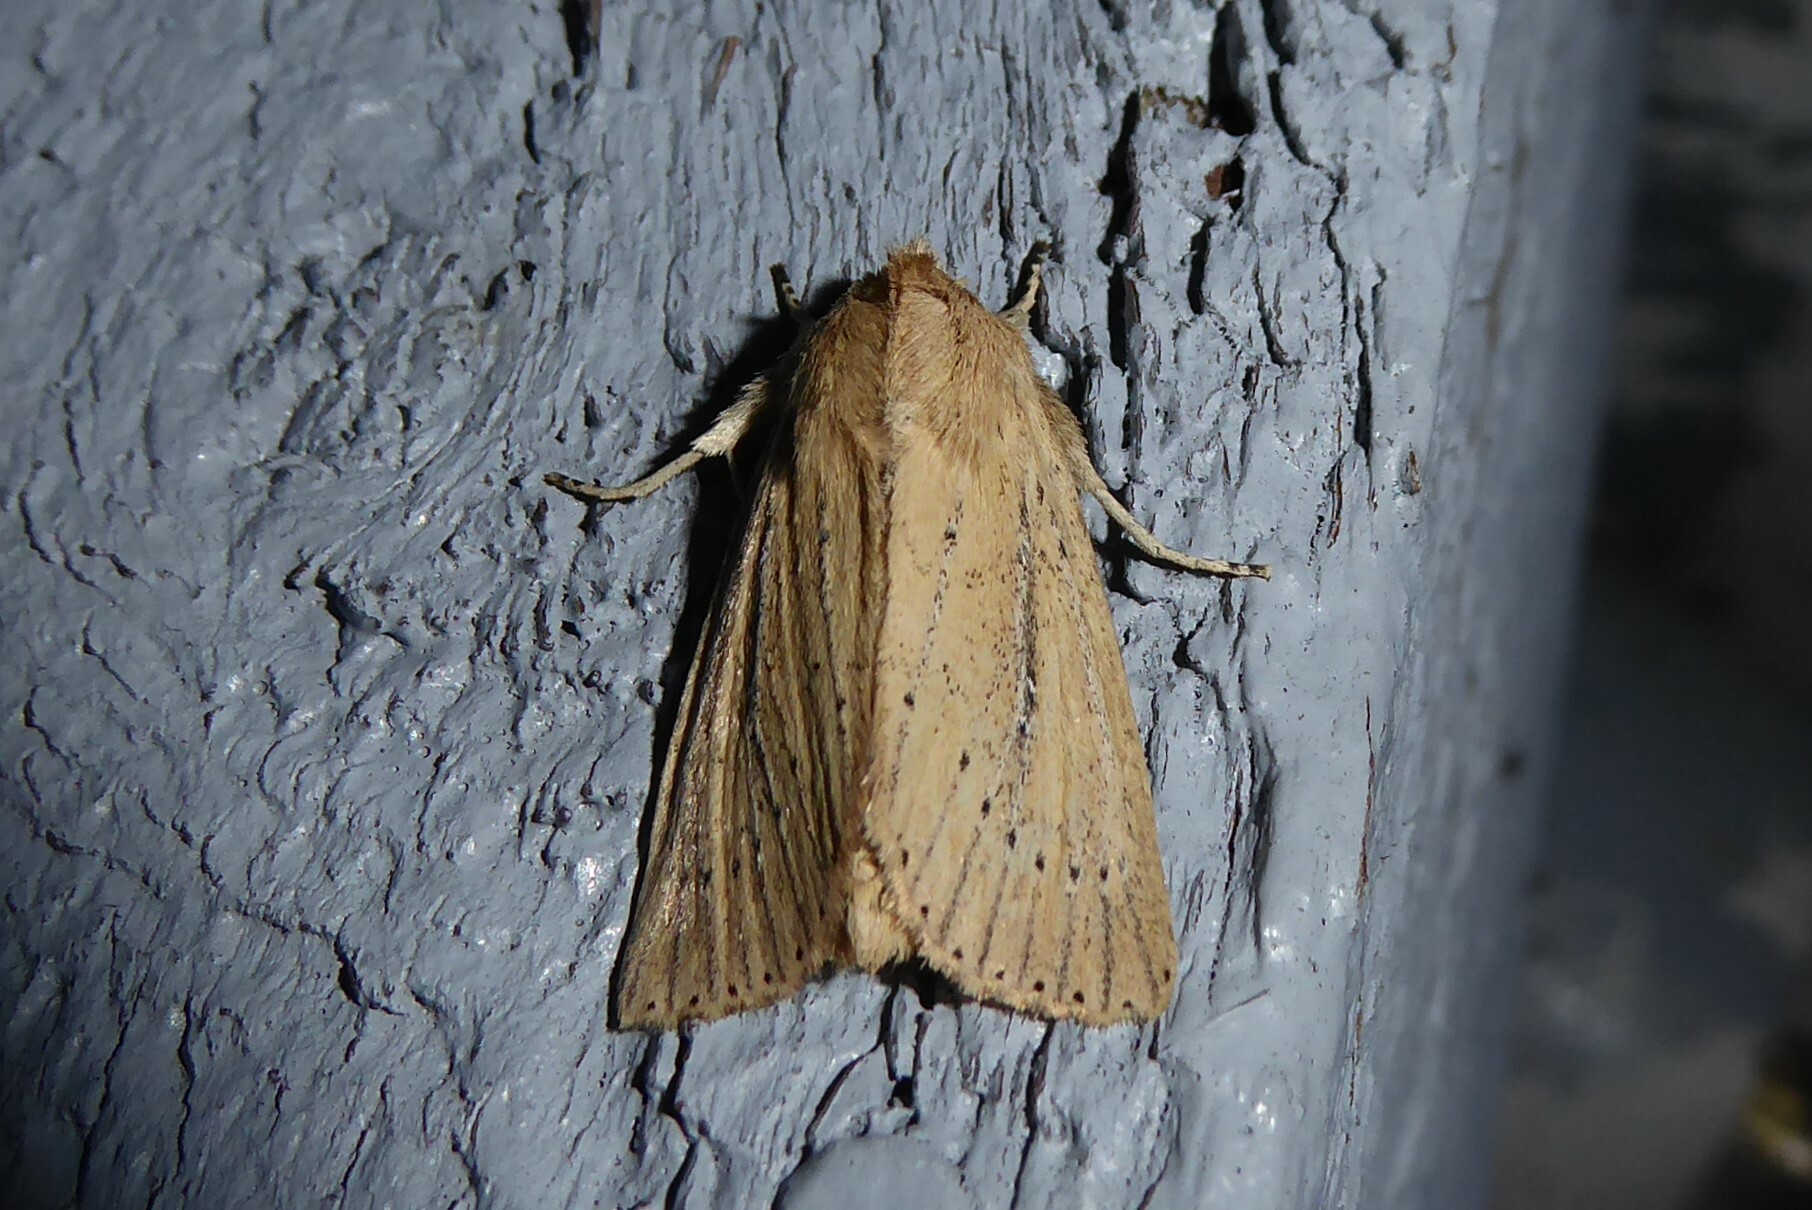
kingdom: Animalia
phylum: Arthropoda
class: Insecta
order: Lepidoptera
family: Noctuidae
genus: Ichneutica
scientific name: Ichneutica
